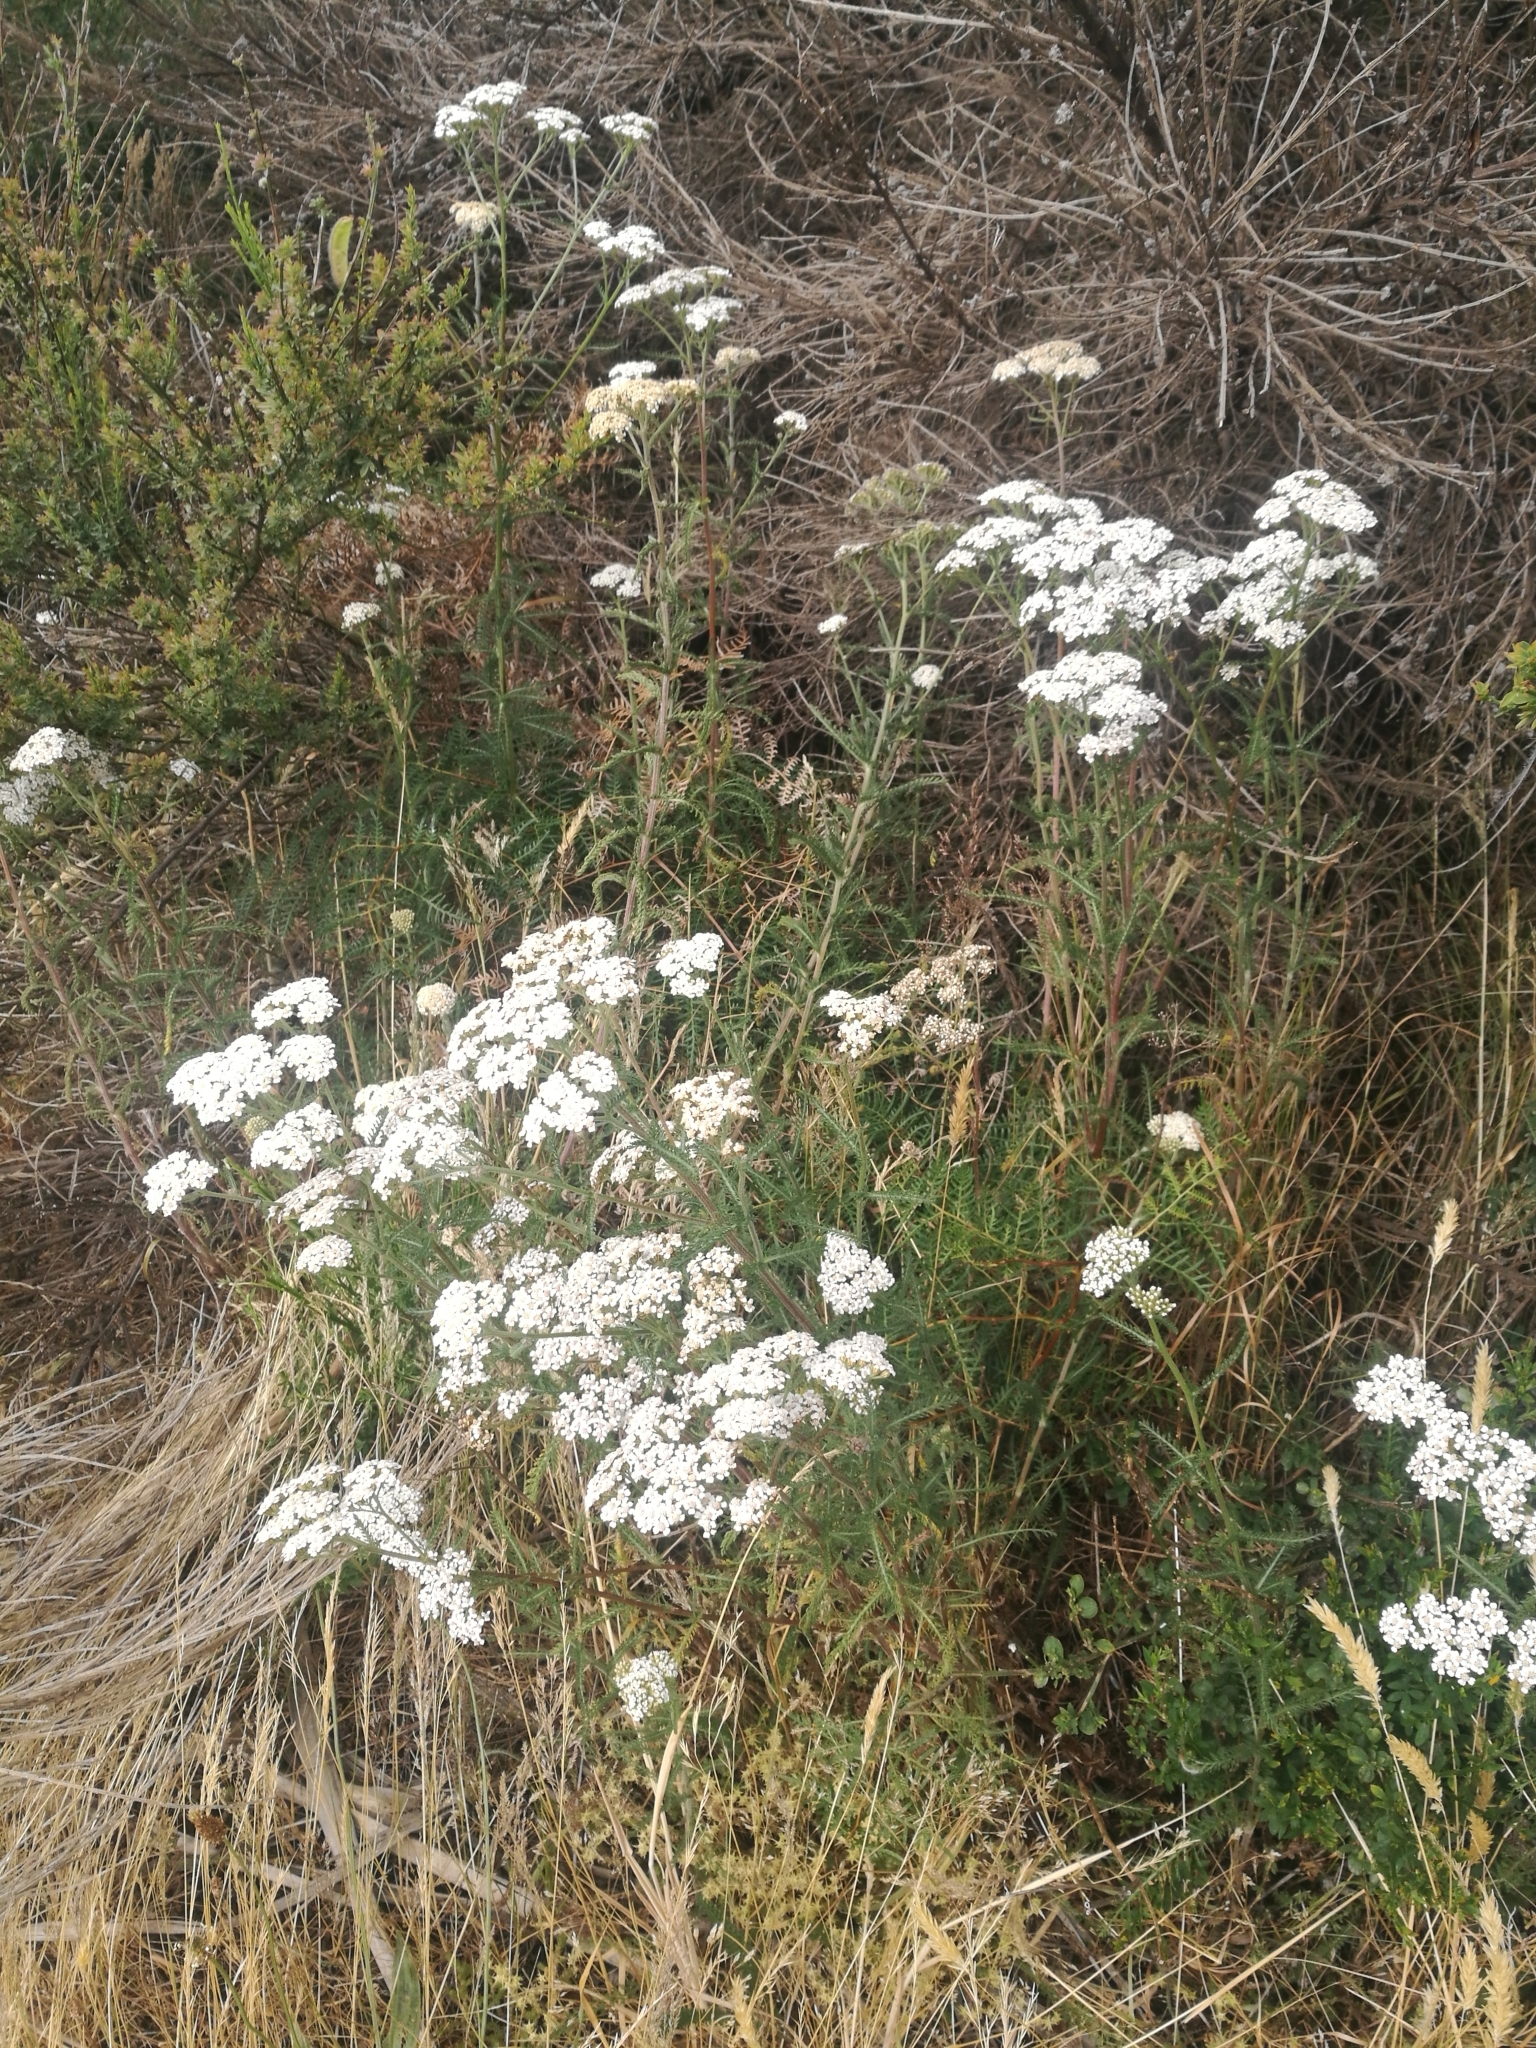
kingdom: Plantae
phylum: Tracheophyta
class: Magnoliopsida
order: Asterales
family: Asteraceae
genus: Achillea
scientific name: Achillea millefolium
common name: Yarrow
